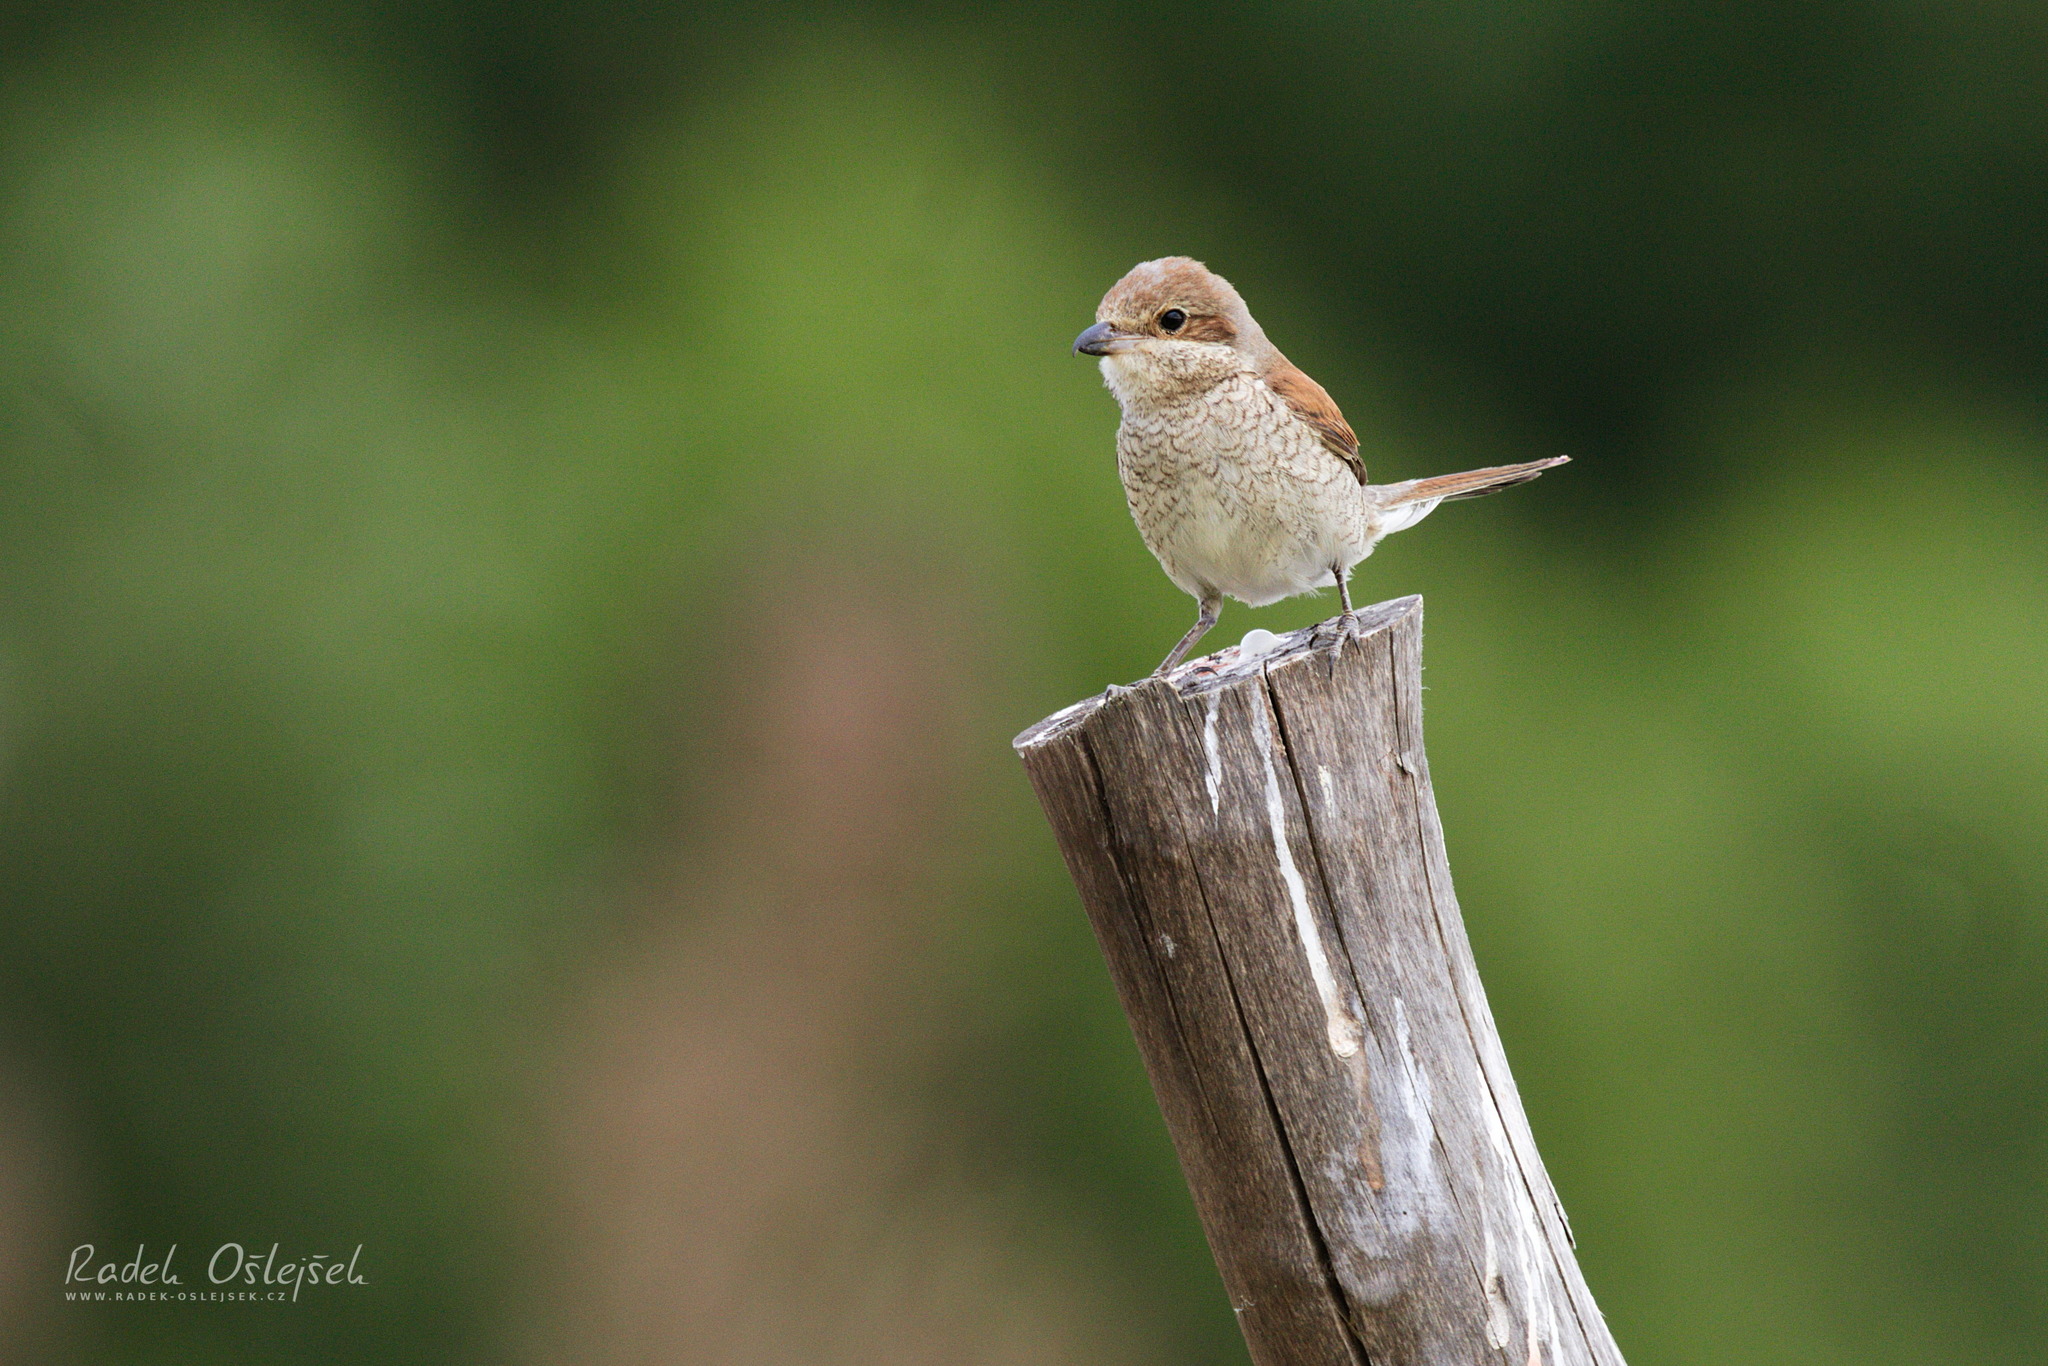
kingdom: Animalia
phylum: Chordata
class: Aves
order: Passeriformes
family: Laniidae
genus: Lanius
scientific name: Lanius collurio
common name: Red-backed shrike
